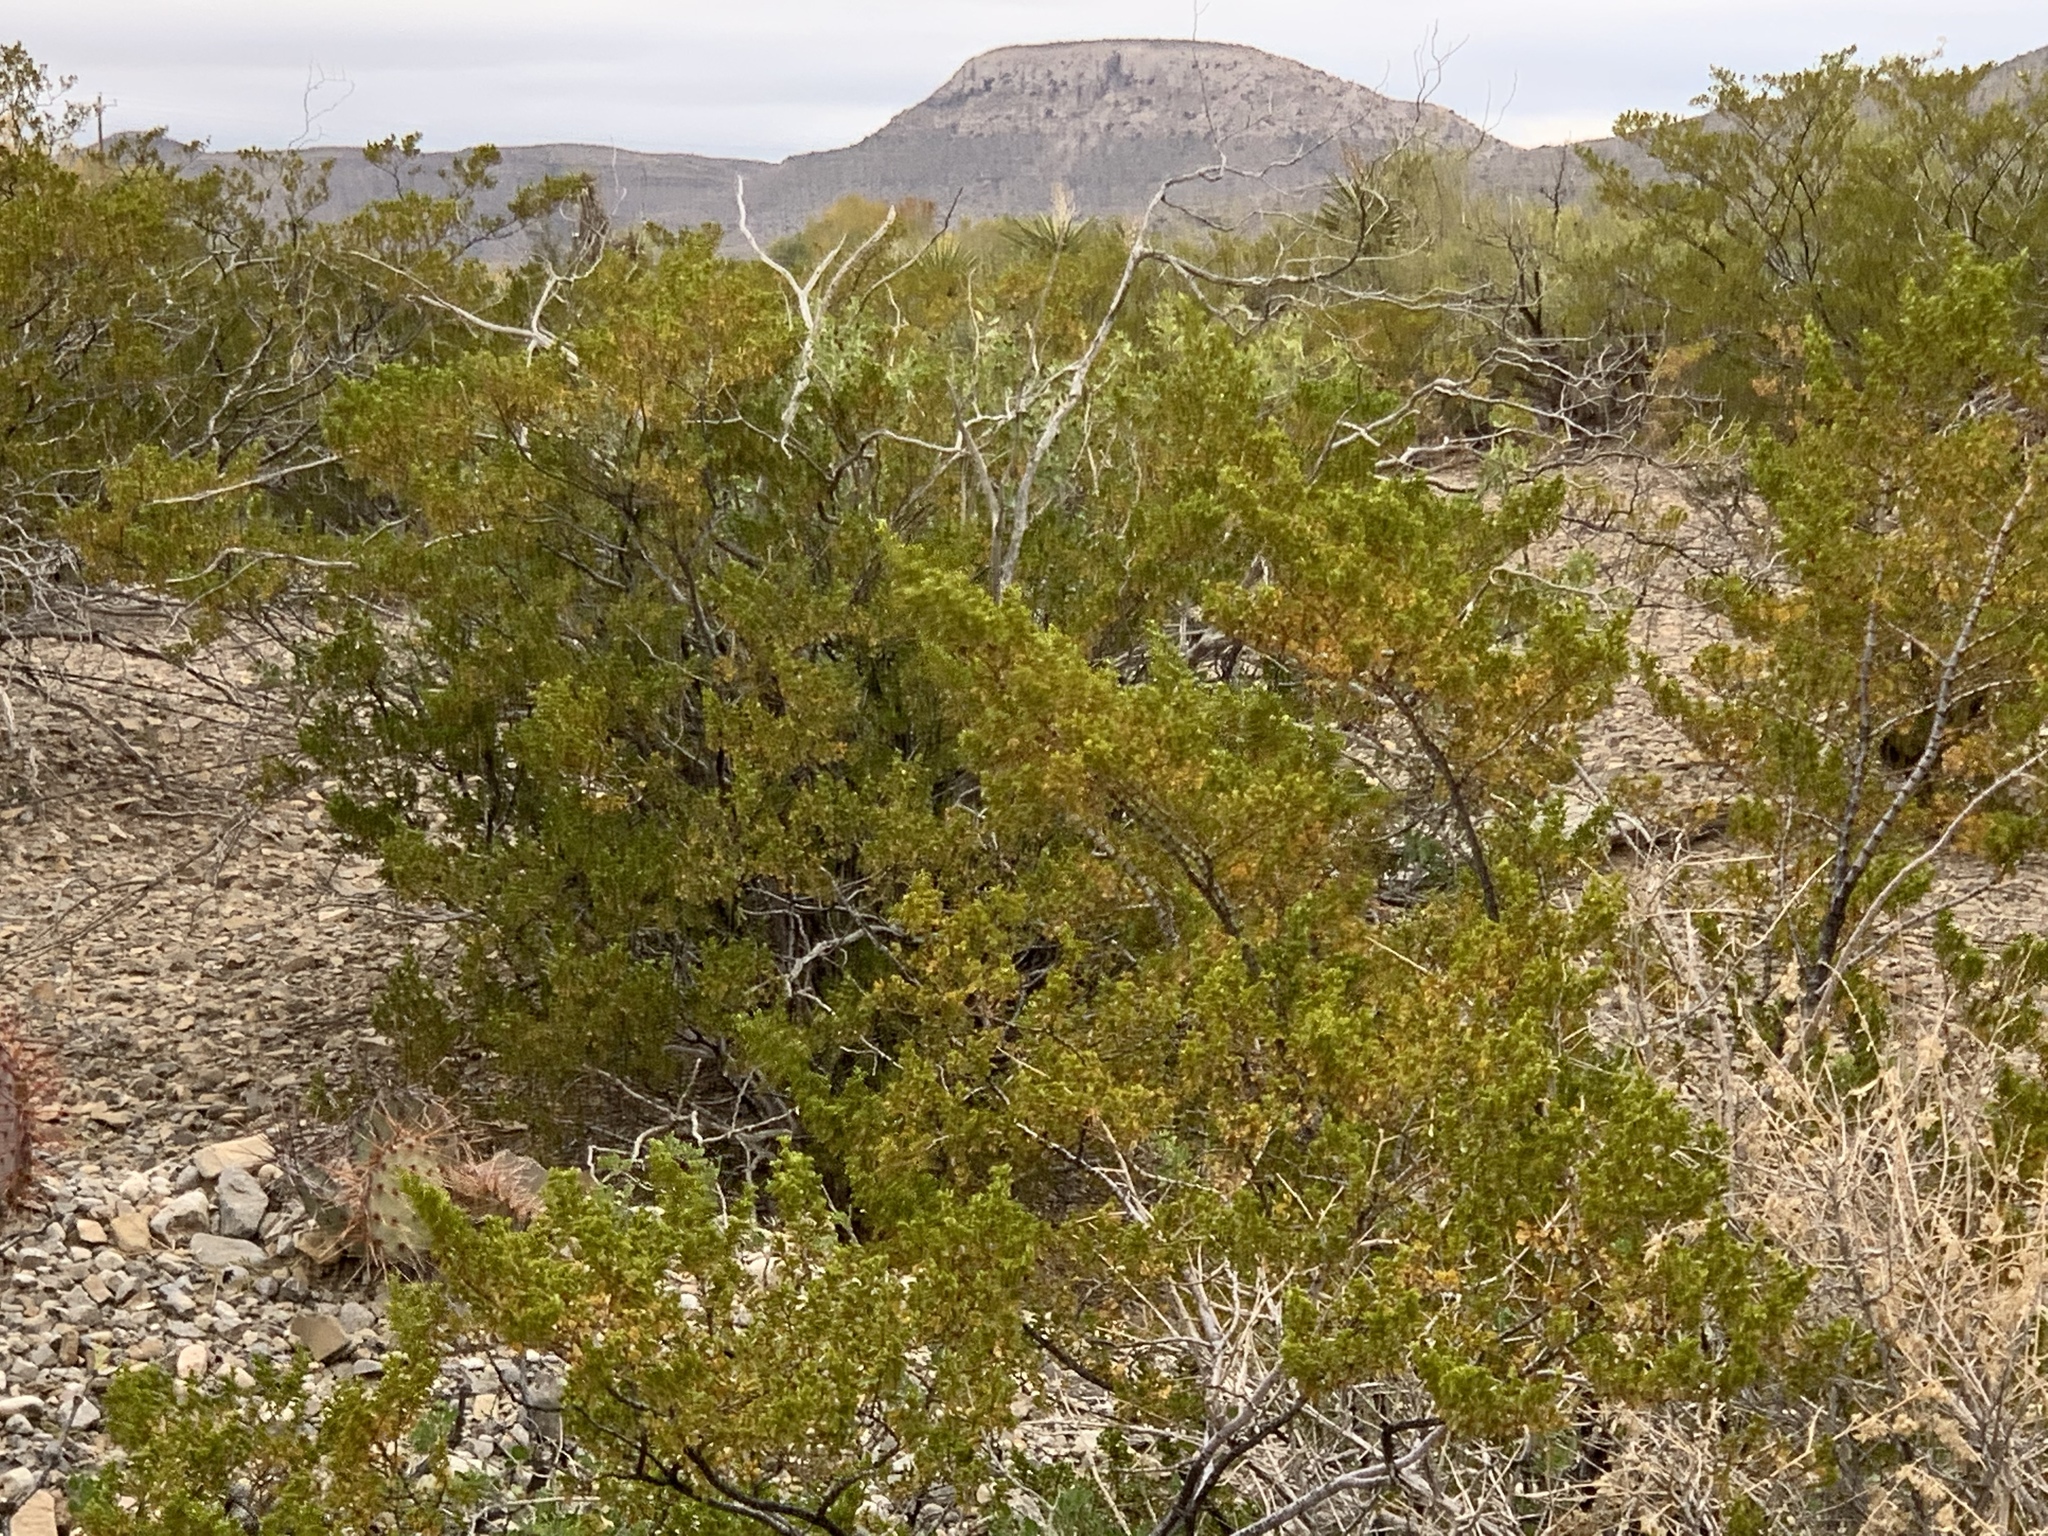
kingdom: Plantae
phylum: Tracheophyta
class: Magnoliopsida
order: Zygophyllales
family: Zygophyllaceae
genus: Larrea
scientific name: Larrea tridentata
